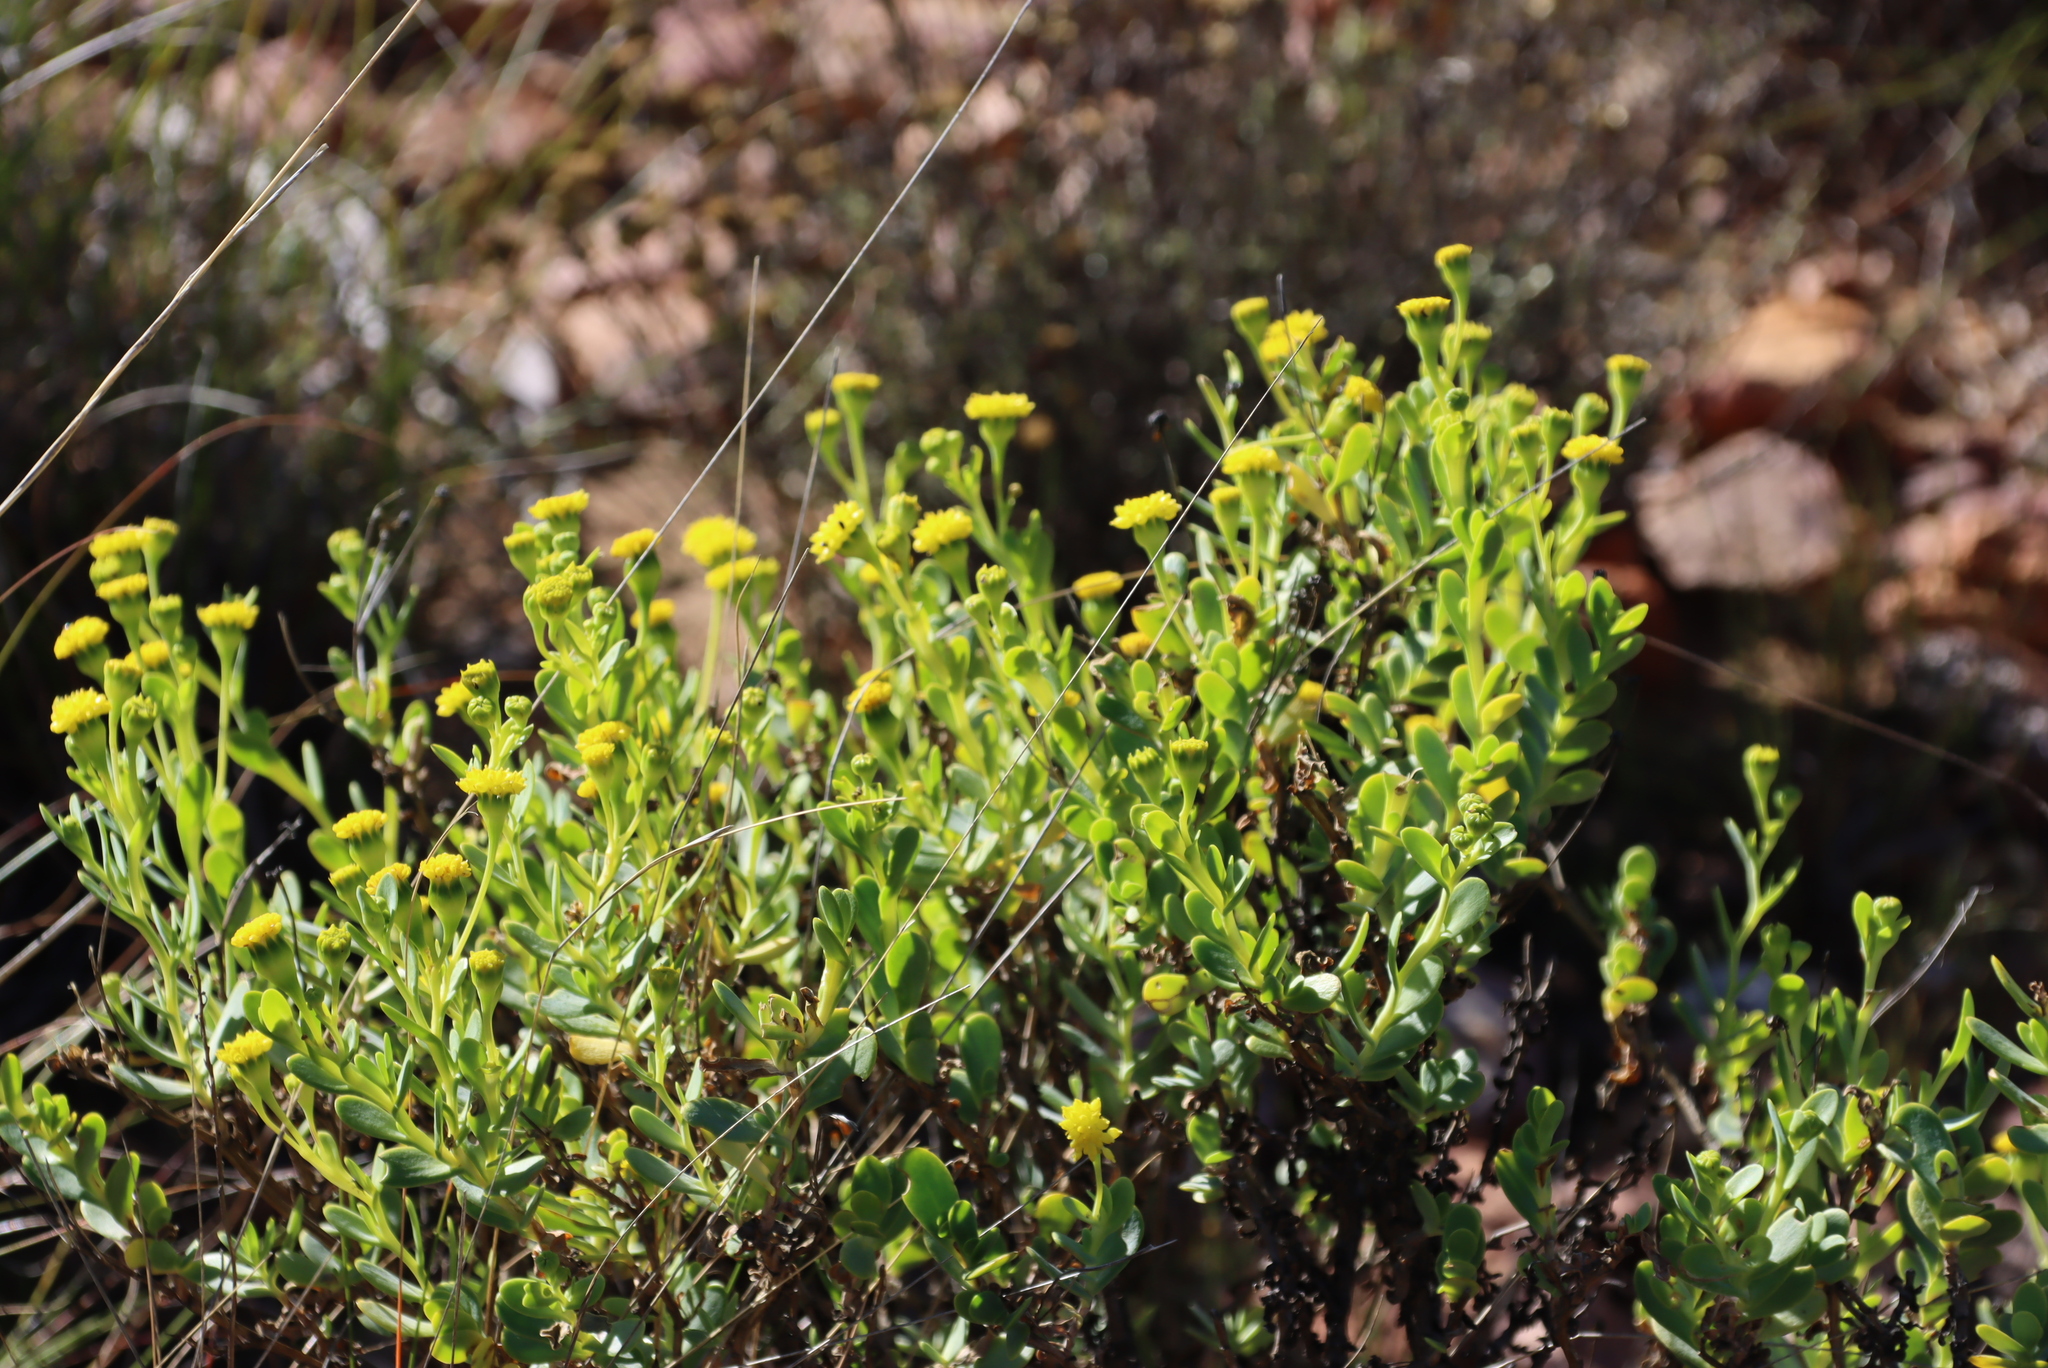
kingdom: Plantae
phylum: Tracheophyta
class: Magnoliopsida
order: Asterales
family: Asteraceae
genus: Hertia
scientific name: Hertia kraussii
